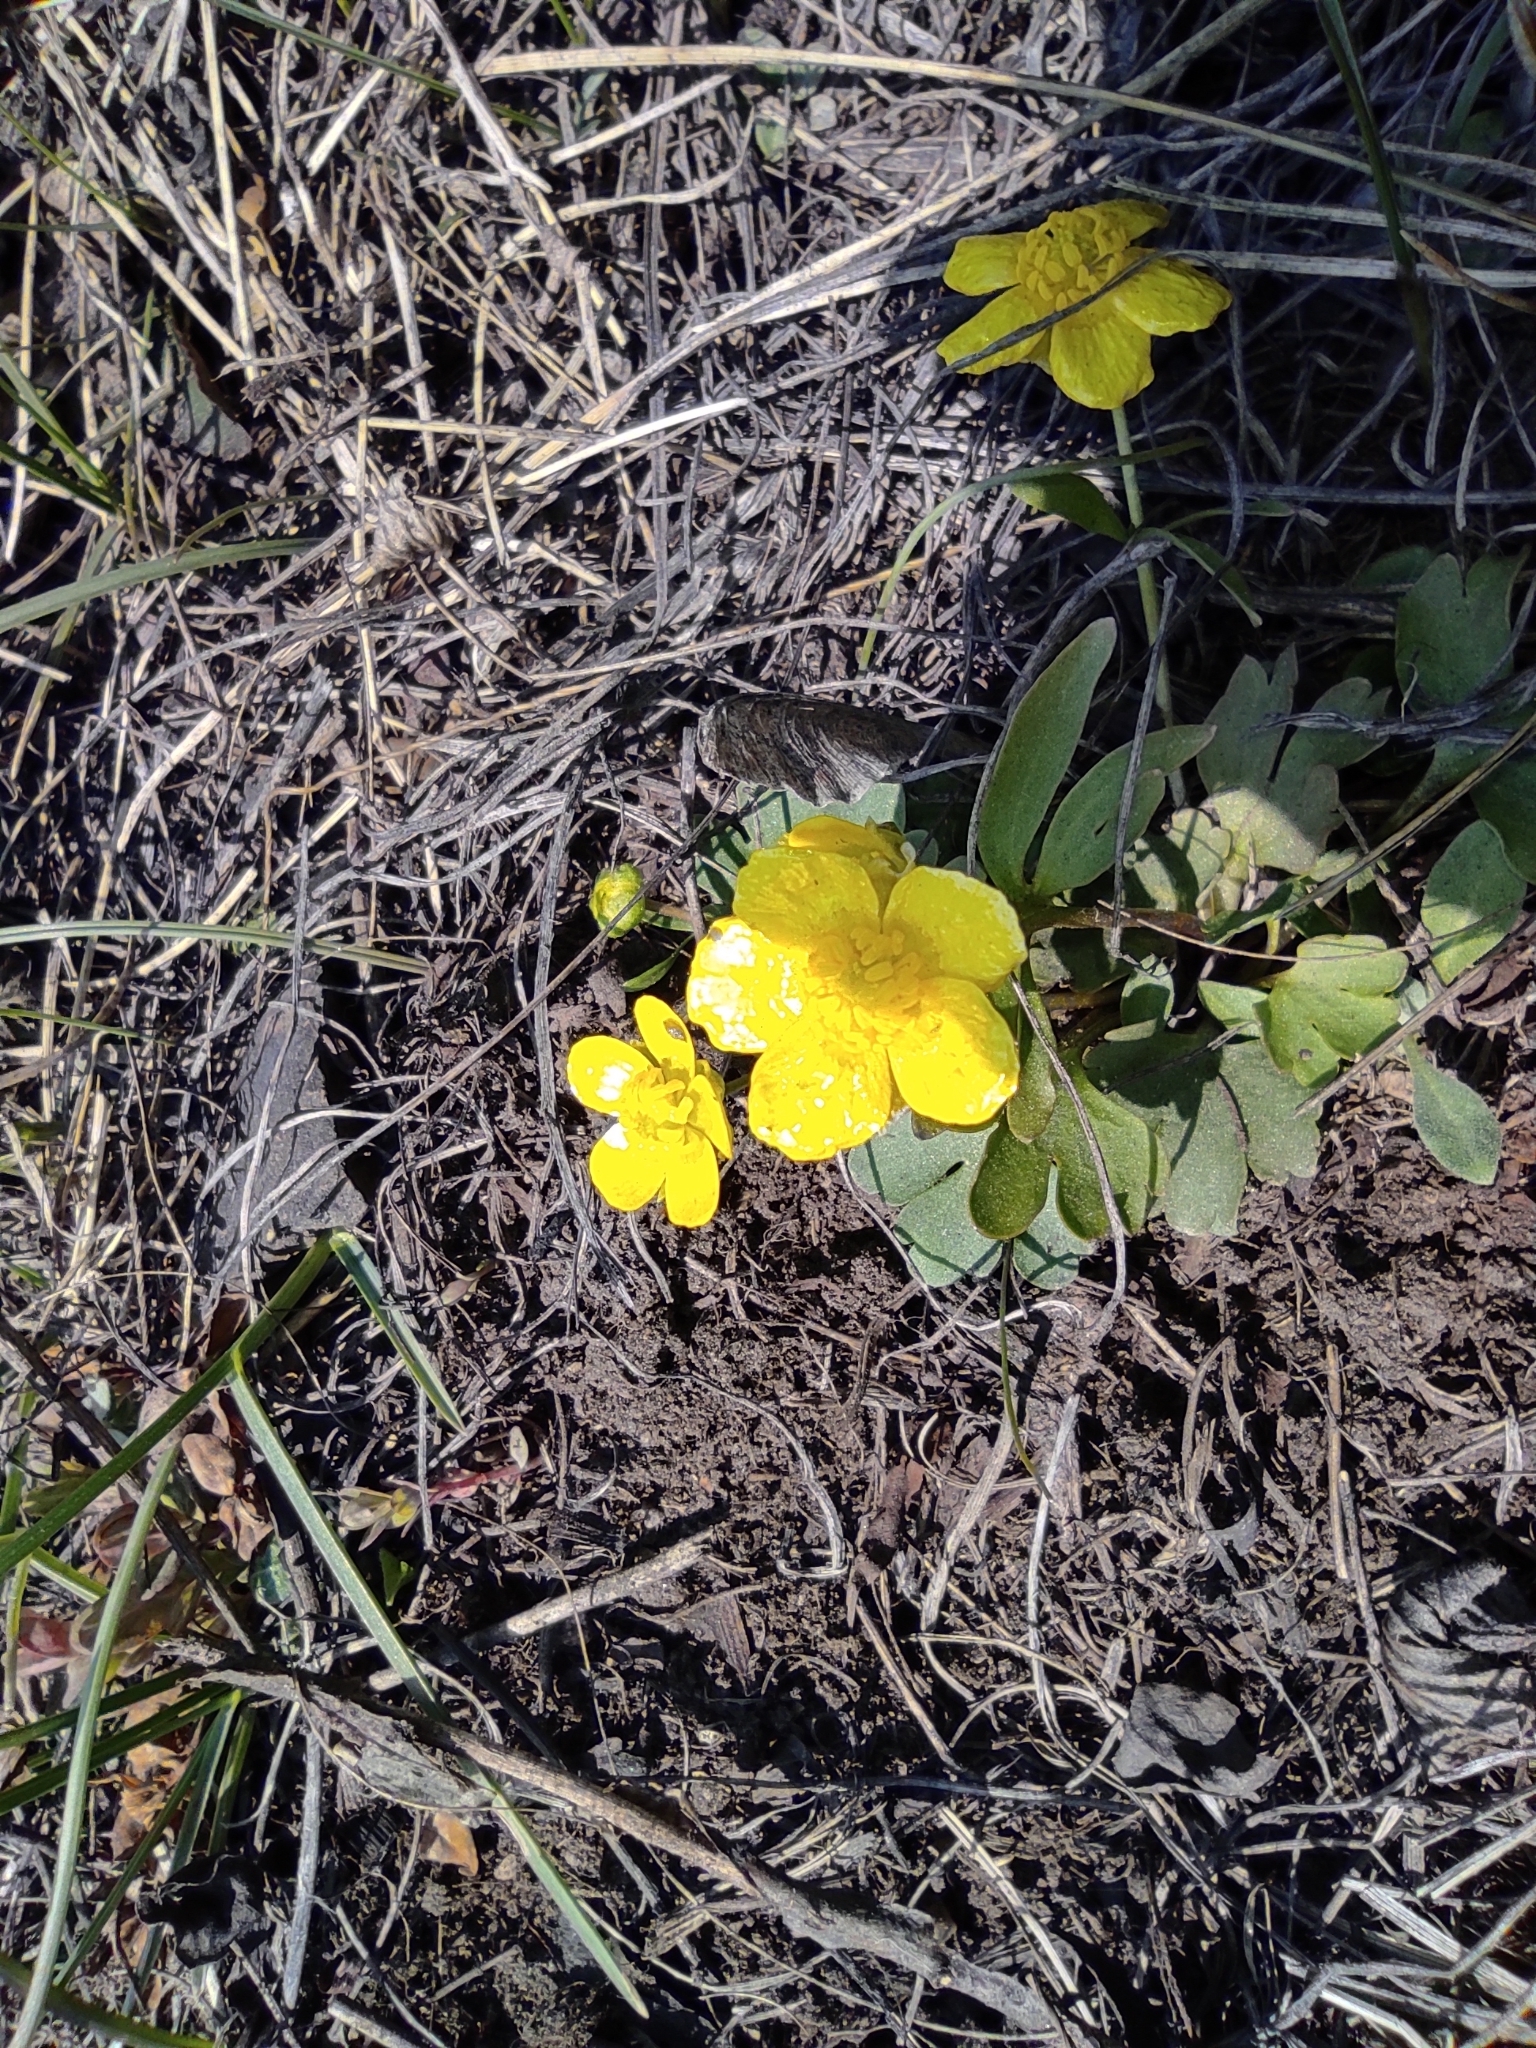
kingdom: Plantae
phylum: Tracheophyta
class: Magnoliopsida
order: Ranunculales
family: Ranunculaceae
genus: Ranunculus
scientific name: Ranunculus polyrhizos
